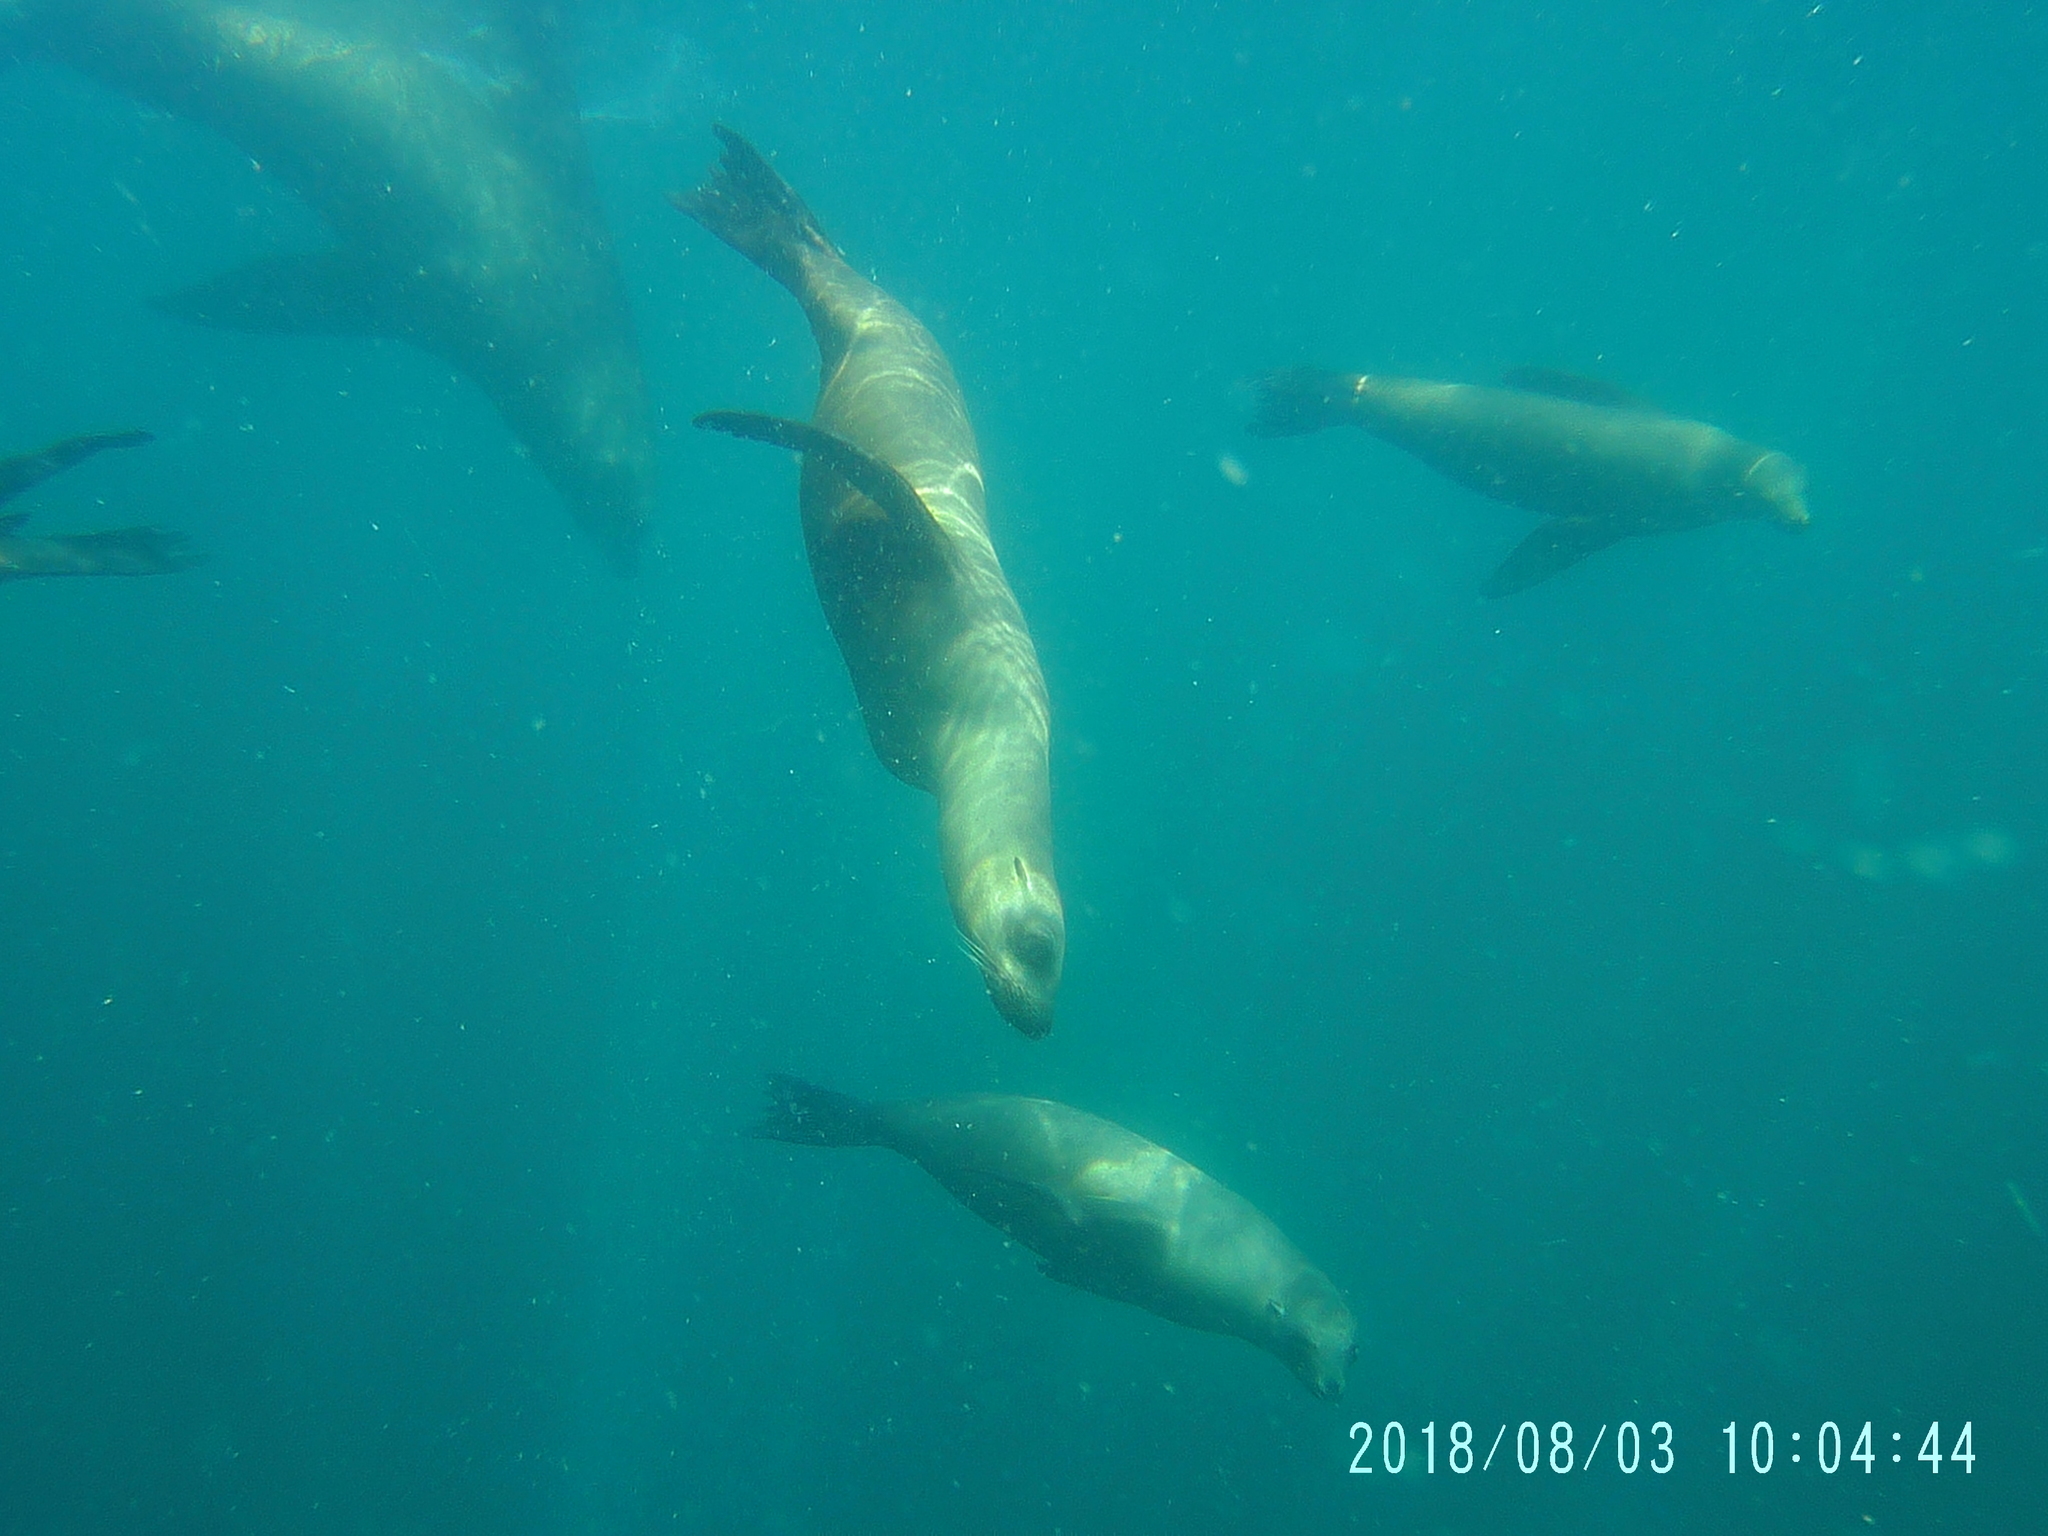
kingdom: Animalia
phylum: Chordata
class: Mammalia
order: Carnivora
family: Otariidae
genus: Zalophus
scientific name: Zalophus californianus
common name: California sea lion
